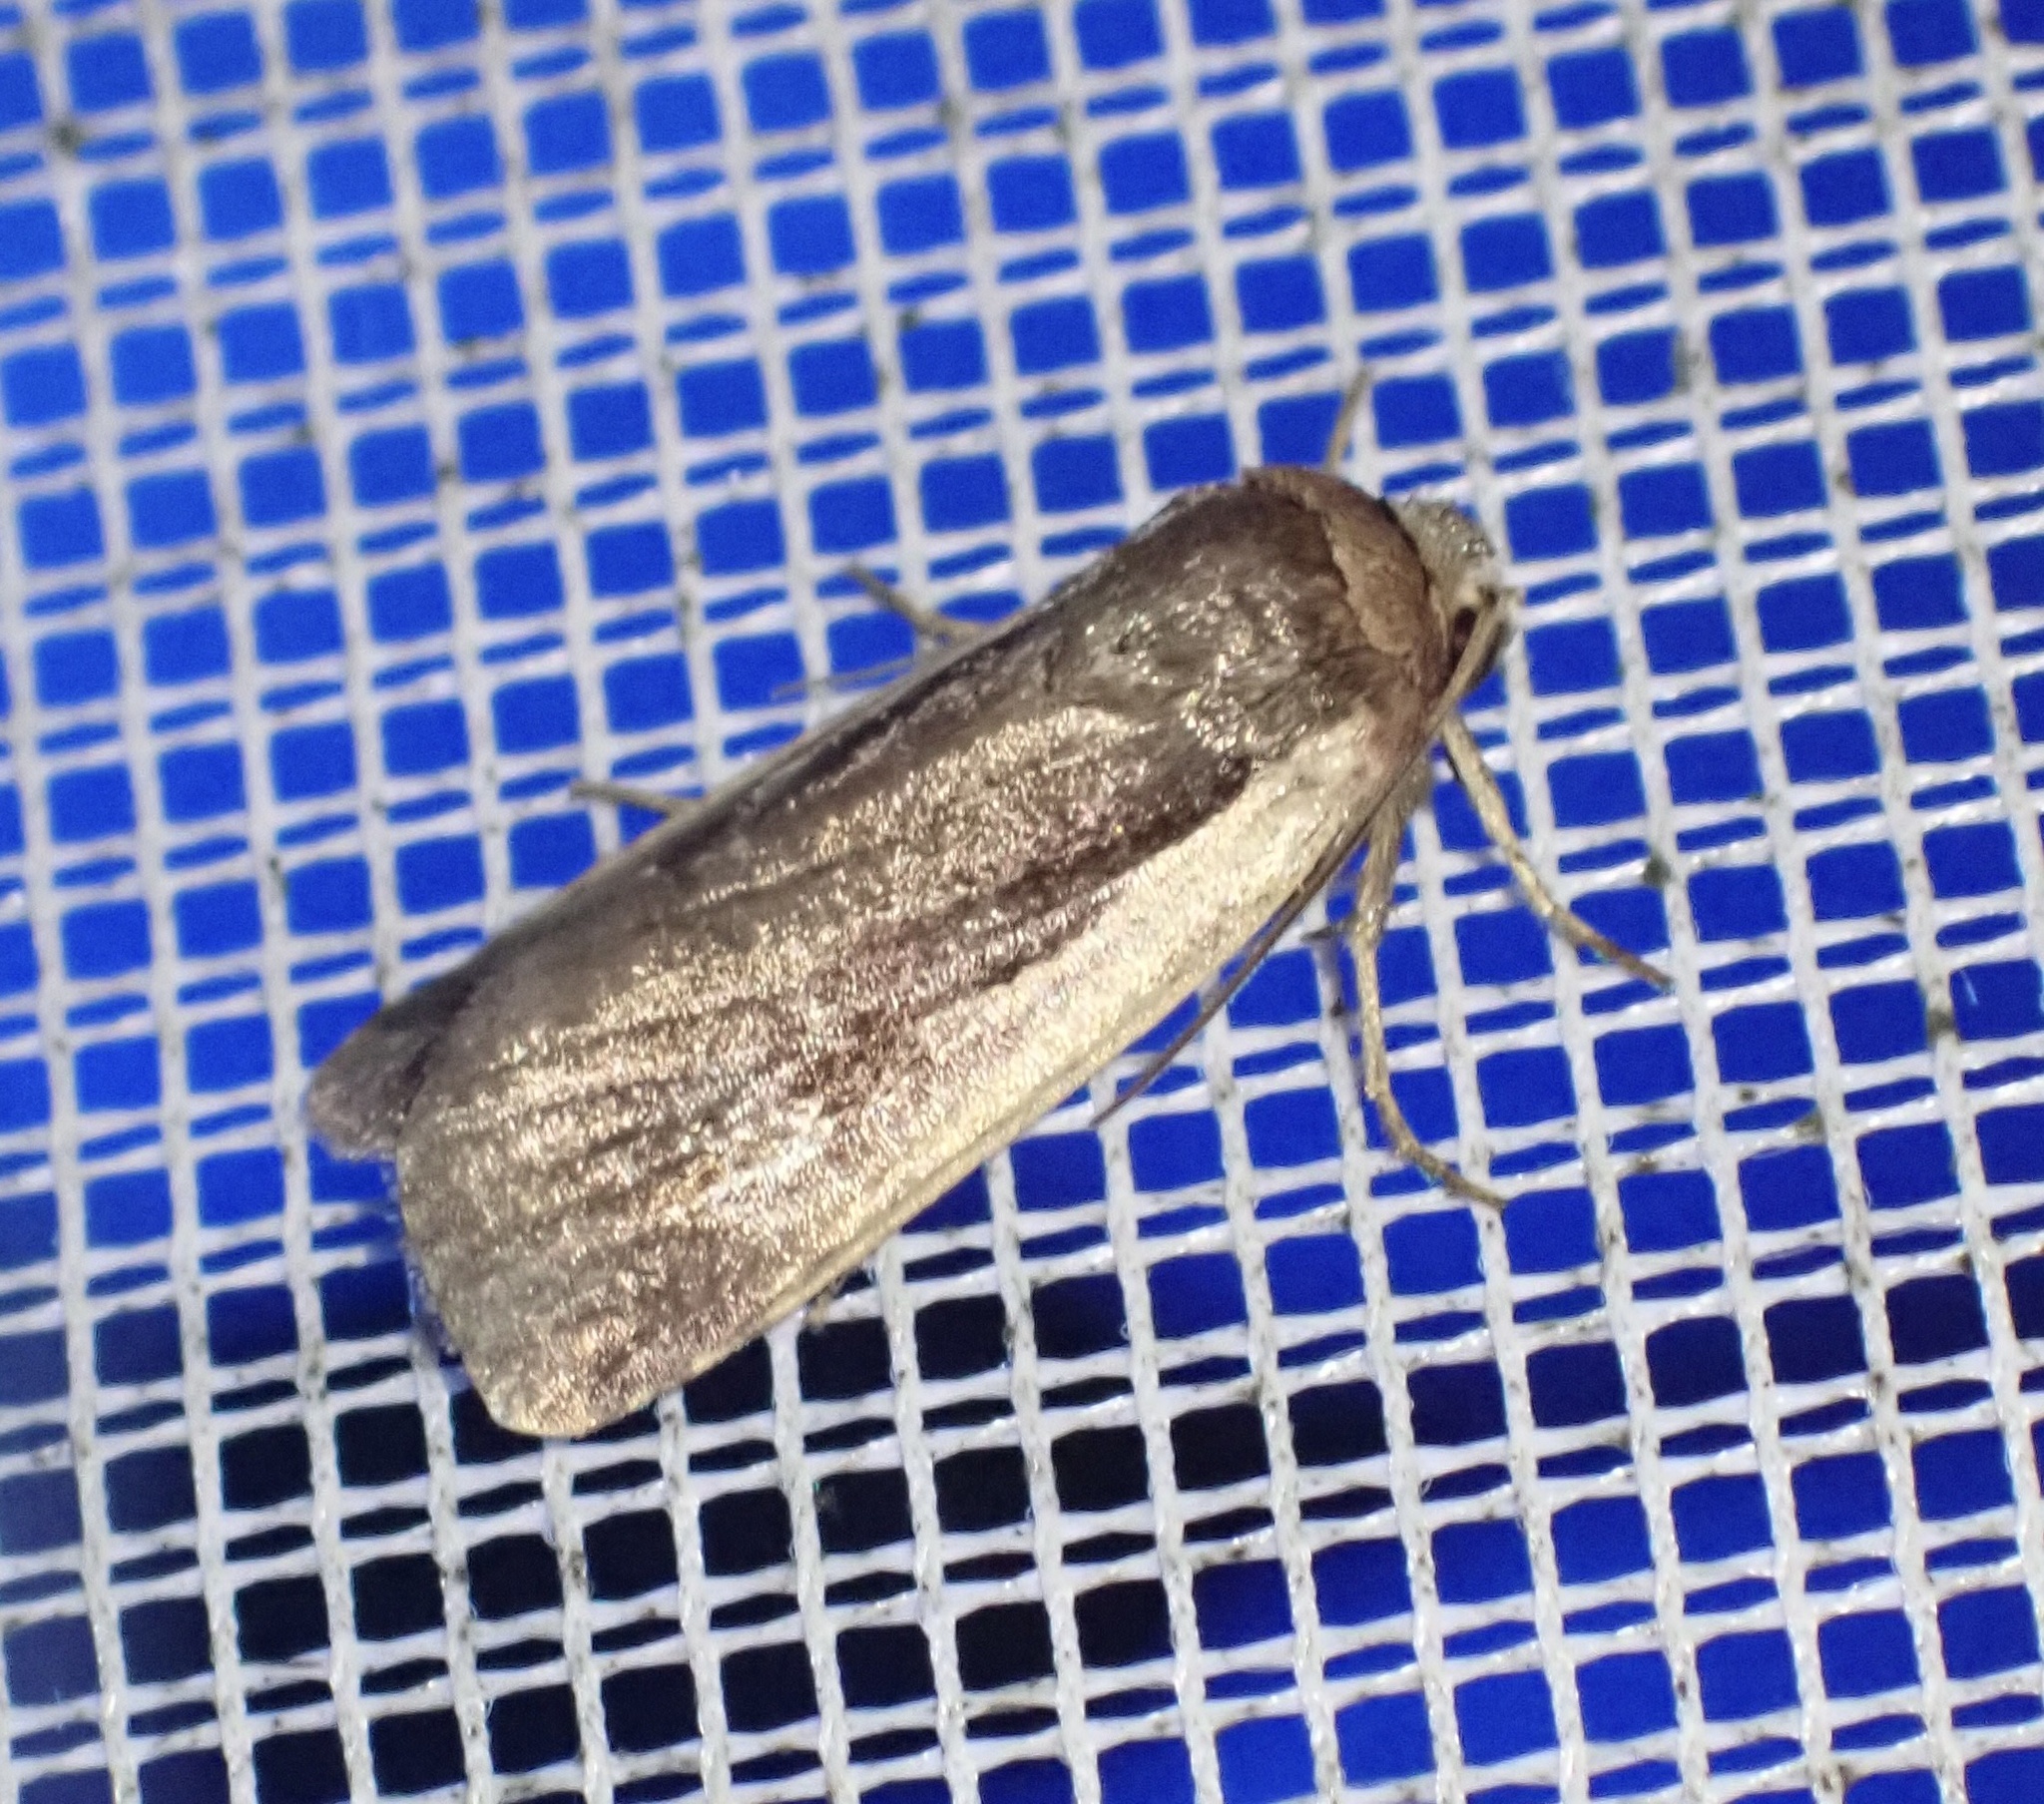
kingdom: Animalia
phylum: Arthropoda
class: Insecta
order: Lepidoptera
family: Noctuidae
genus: Ochropleura
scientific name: Ochropleura plecta
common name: Flame shoulder
